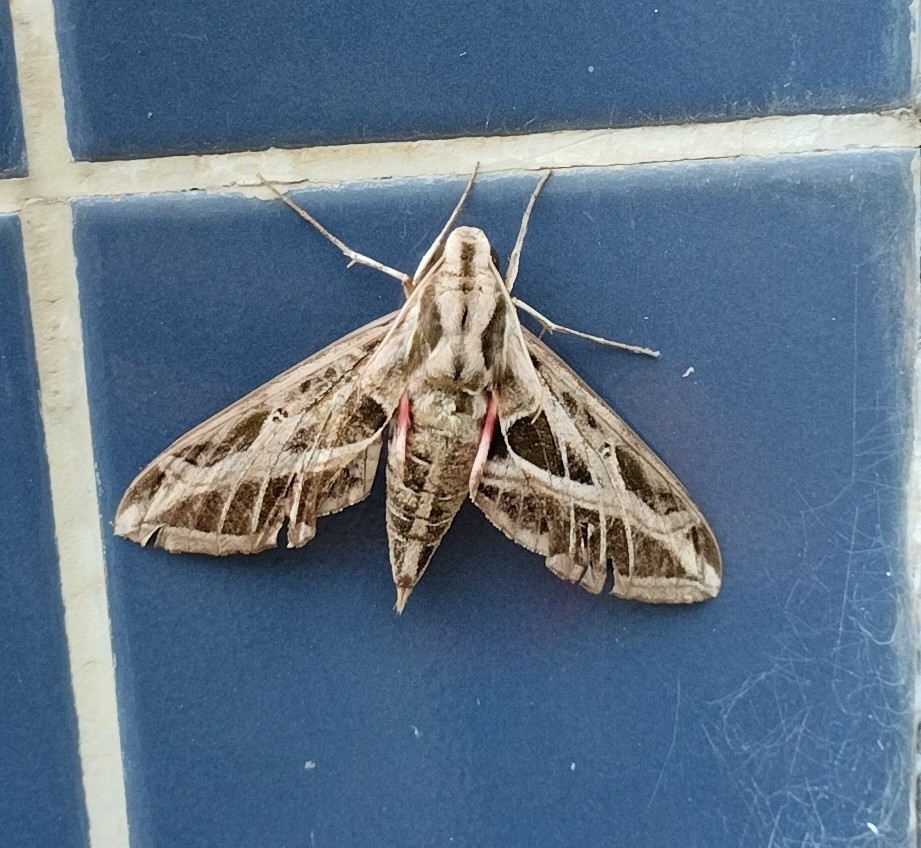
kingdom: Animalia
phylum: Arthropoda
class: Insecta
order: Lepidoptera
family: Sphingidae
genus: Eumorpha
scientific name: Eumorpha vitis
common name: Vine sphinx
